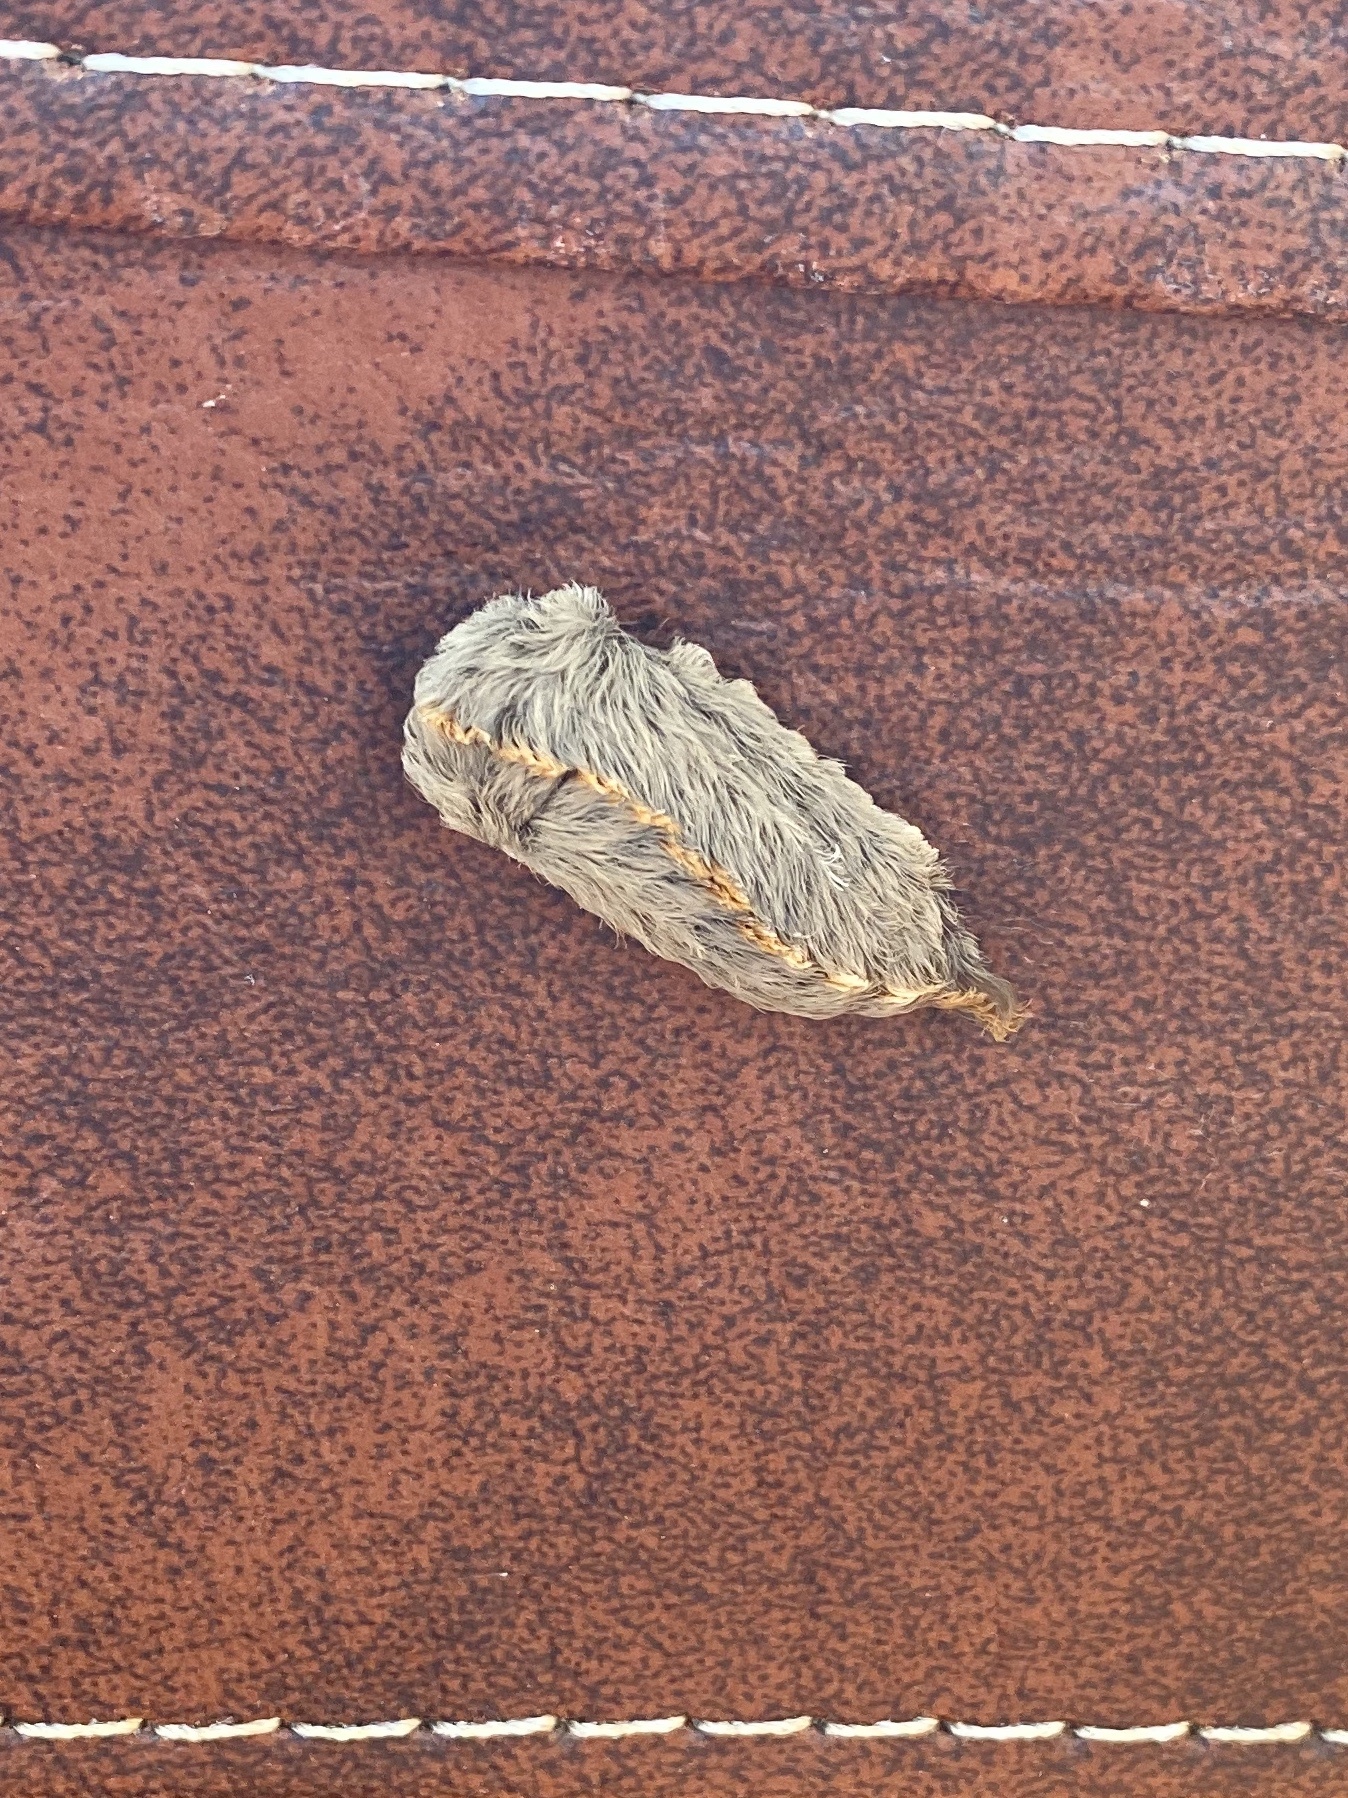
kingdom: Animalia
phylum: Arthropoda
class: Insecta
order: Lepidoptera
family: Megalopygidae
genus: Megalopyge
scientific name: Megalopyge opercularis
